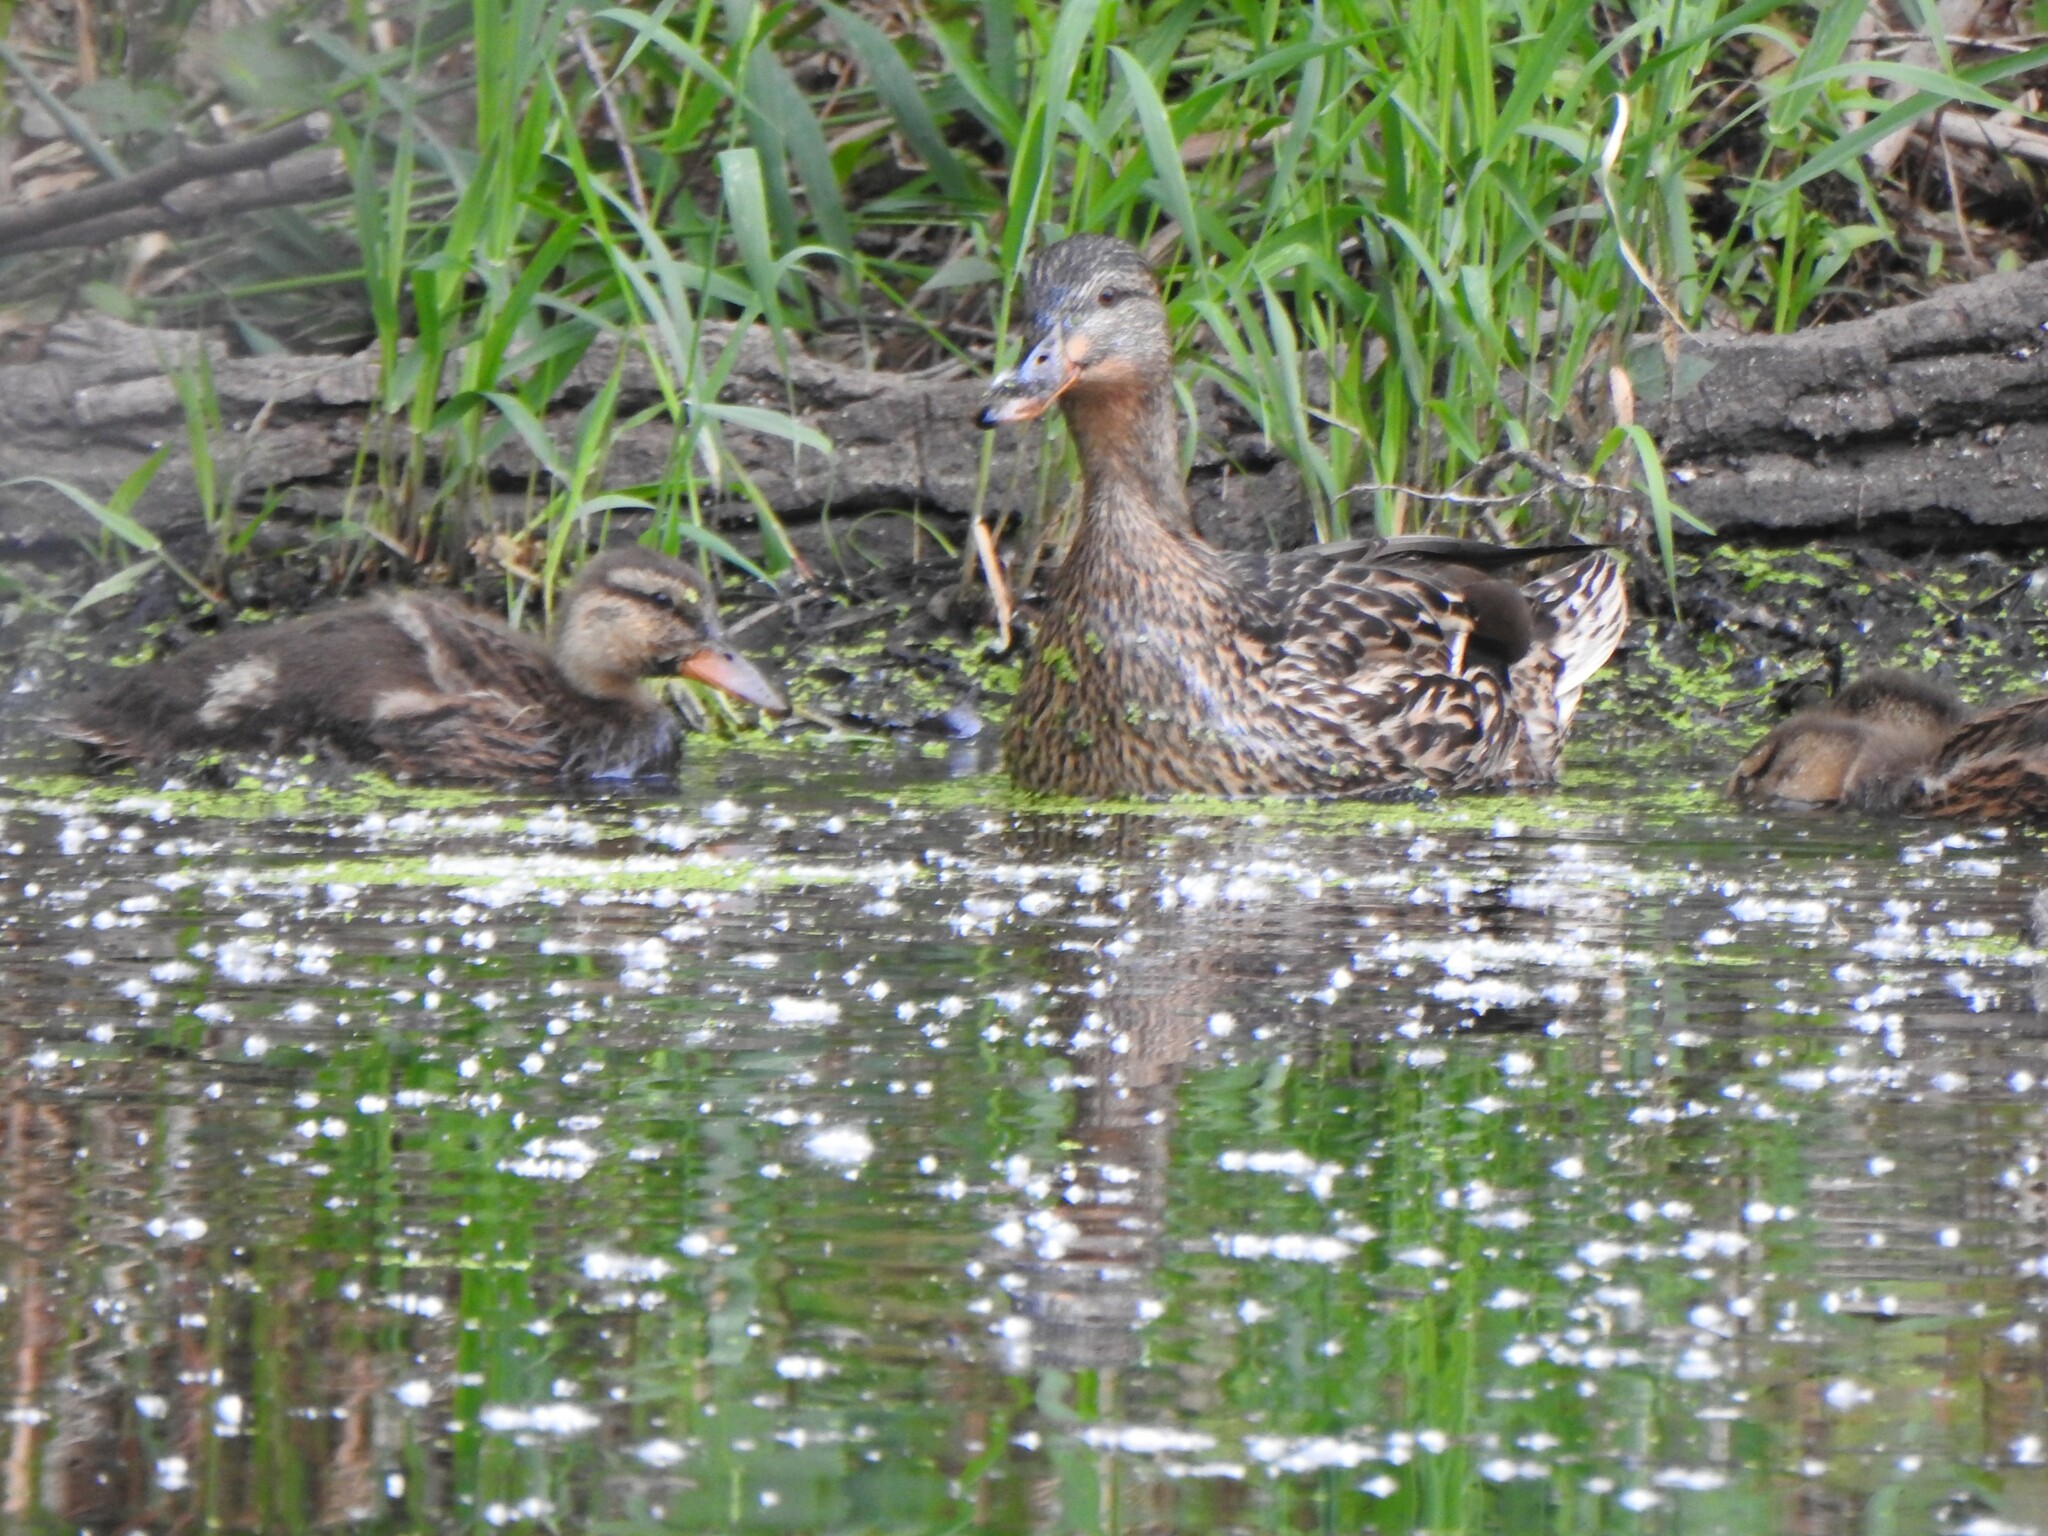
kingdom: Animalia
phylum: Chordata
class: Aves
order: Anseriformes
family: Anatidae
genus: Anas
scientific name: Anas platyrhynchos
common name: Mallard
